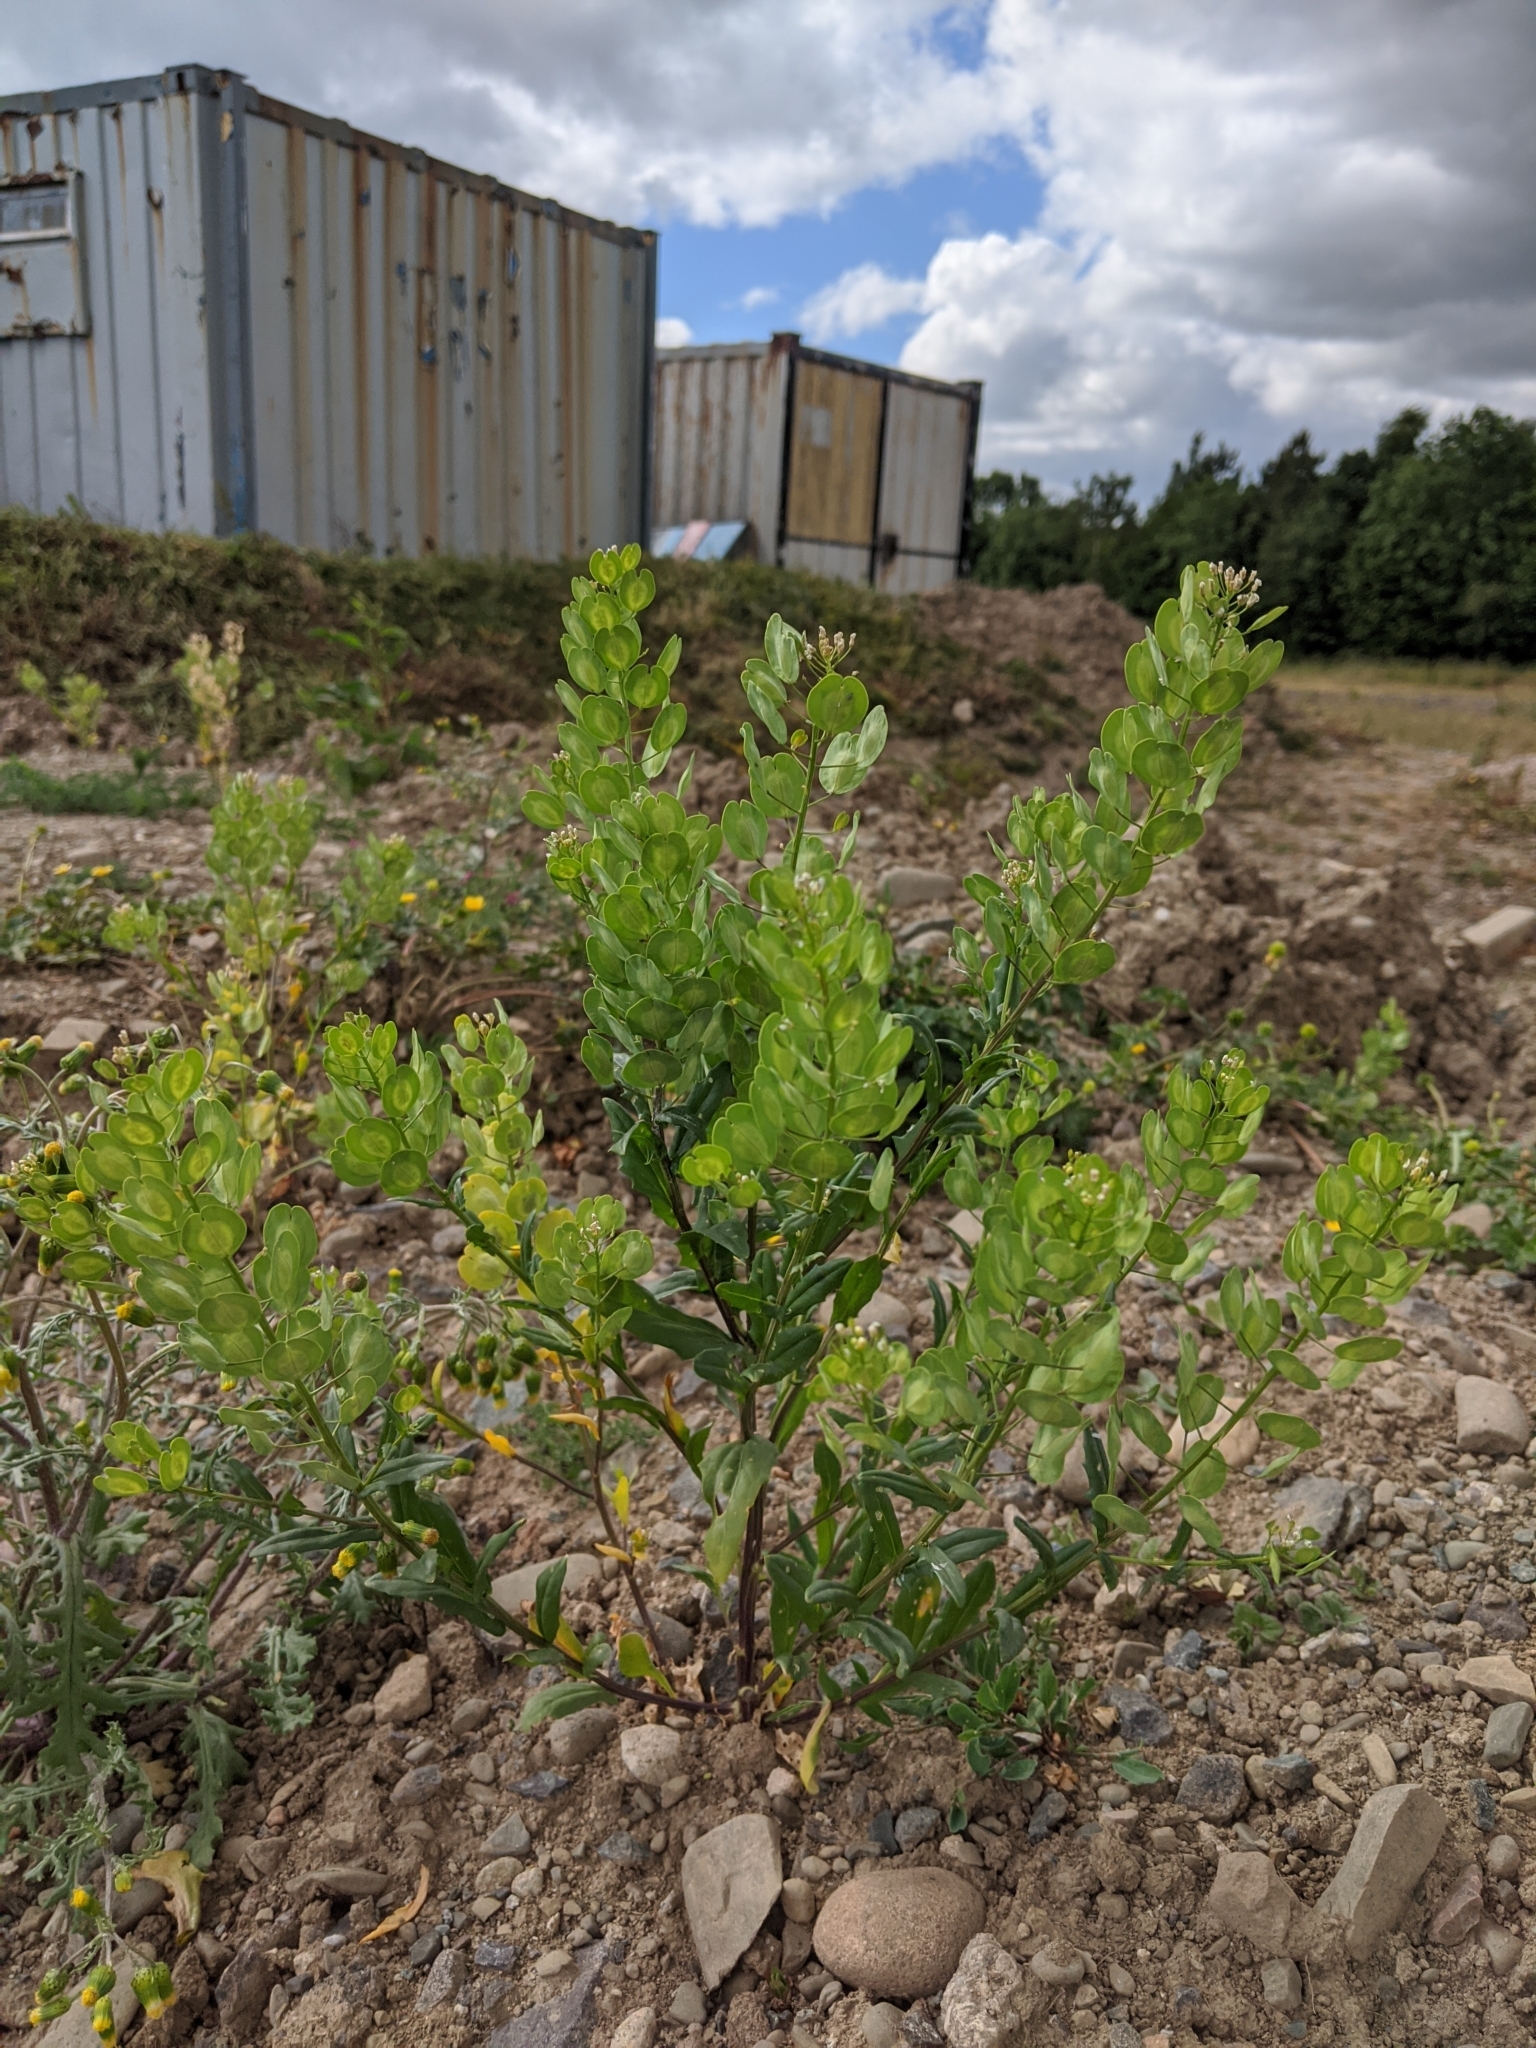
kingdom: Plantae
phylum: Tracheophyta
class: Magnoliopsida
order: Brassicales
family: Brassicaceae
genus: Thlaspi
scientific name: Thlaspi arvense
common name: Field pennycress
